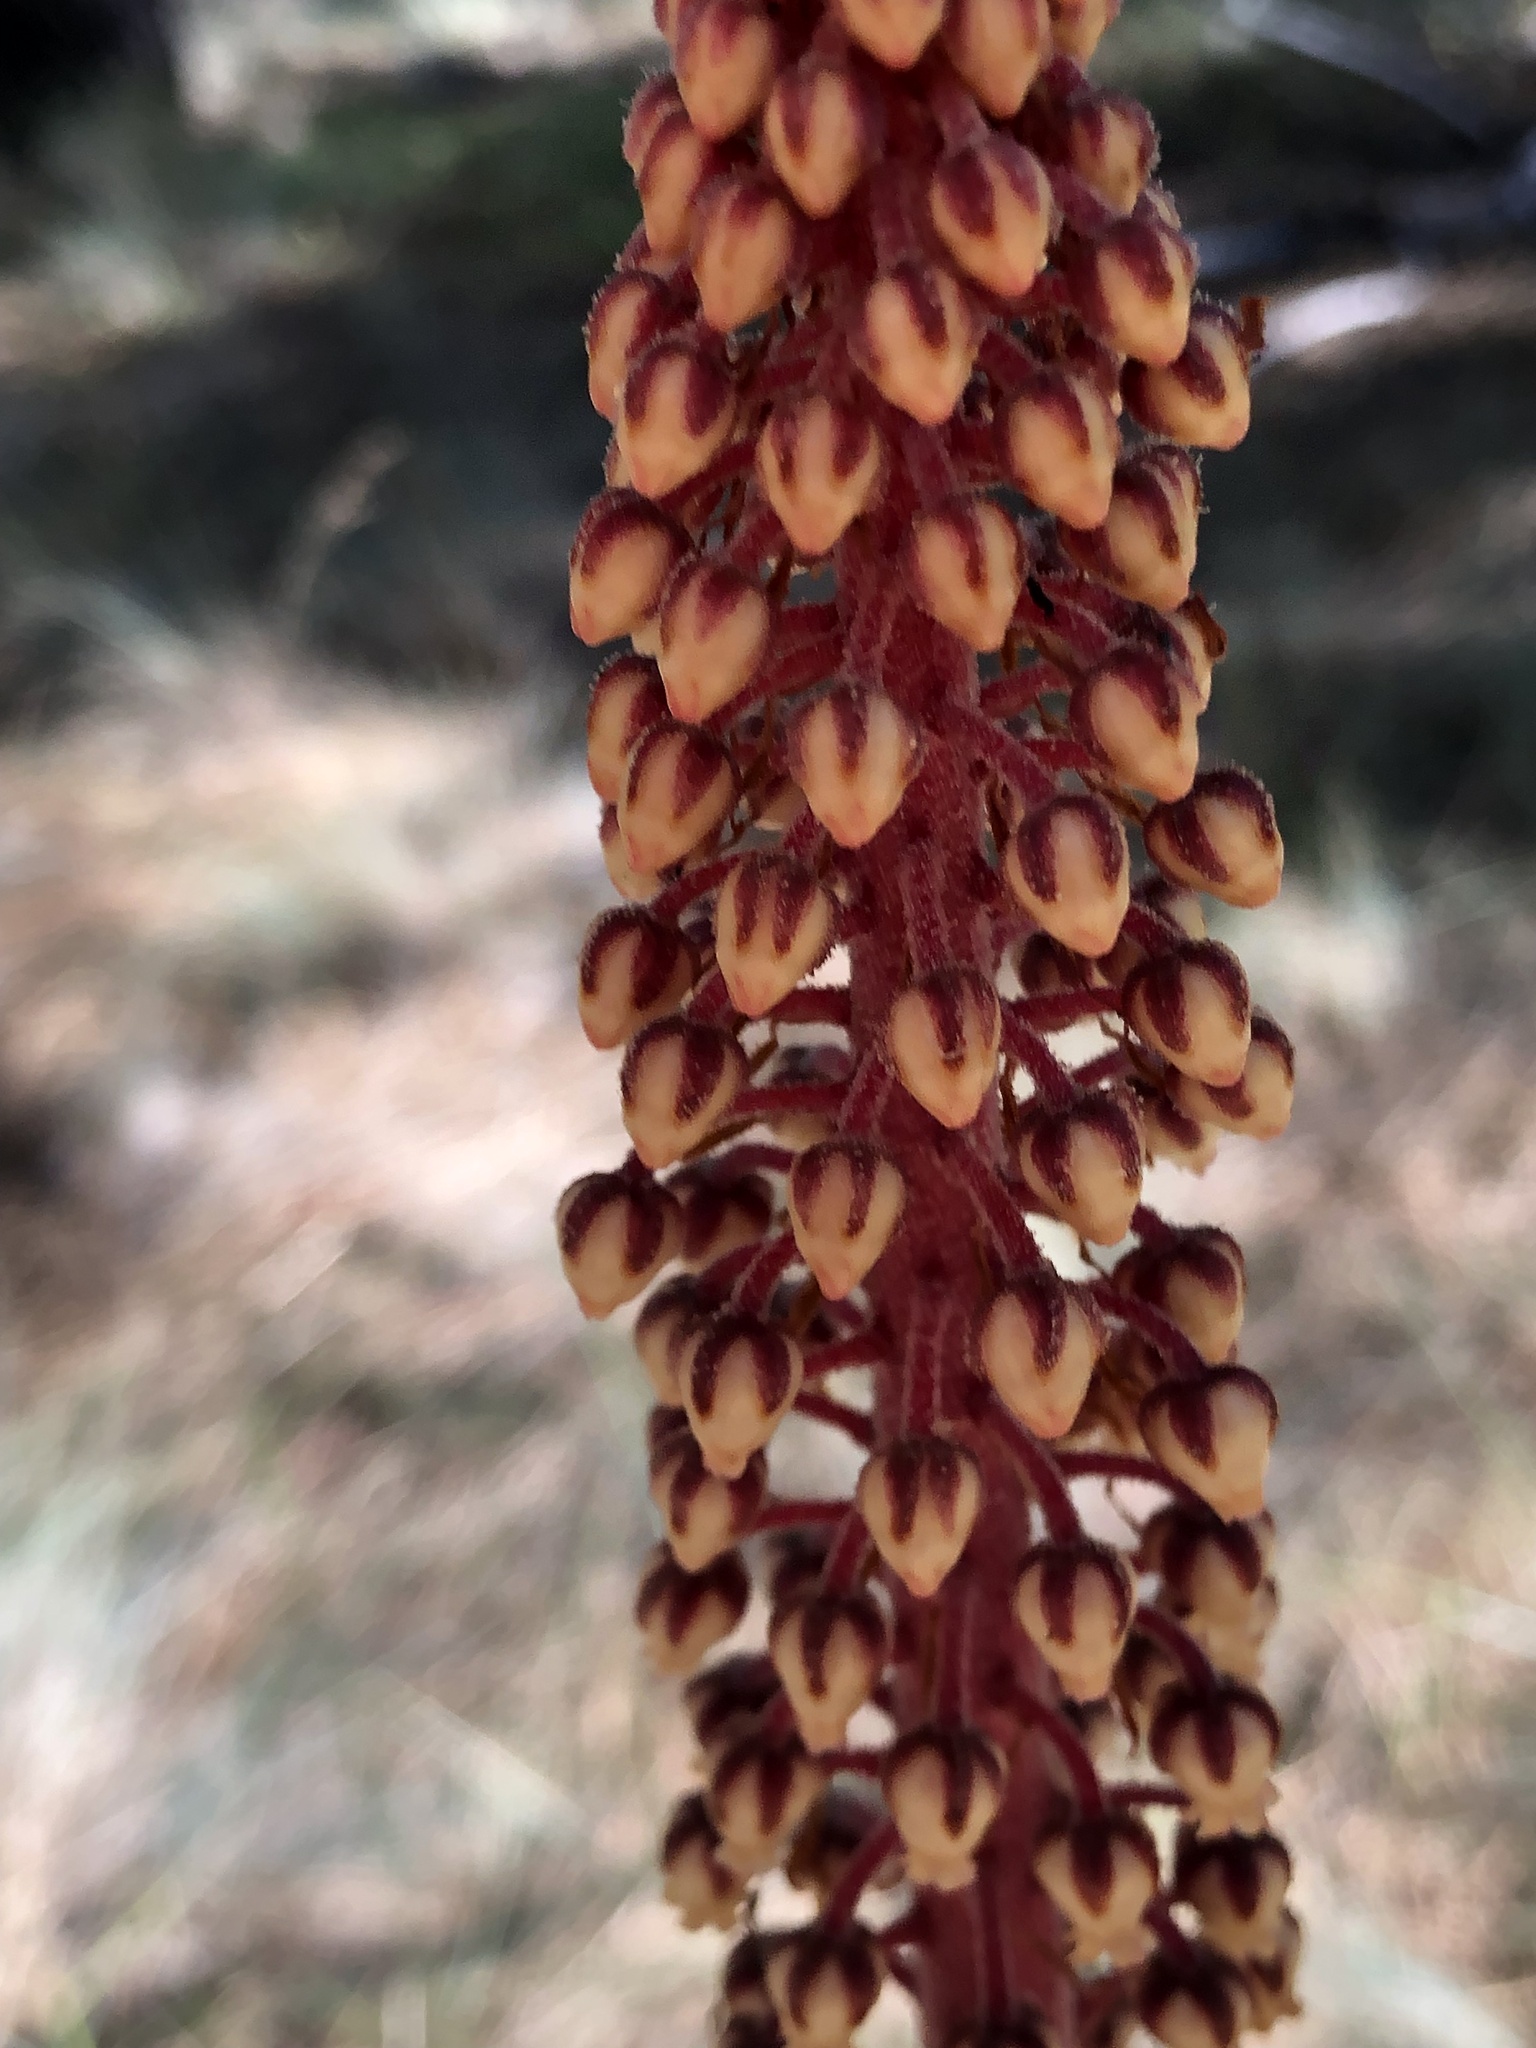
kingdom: Plantae
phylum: Tracheophyta
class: Magnoliopsida
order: Ericales
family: Ericaceae
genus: Pterospora
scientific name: Pterospora andromedea
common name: Giant bird's-nest
